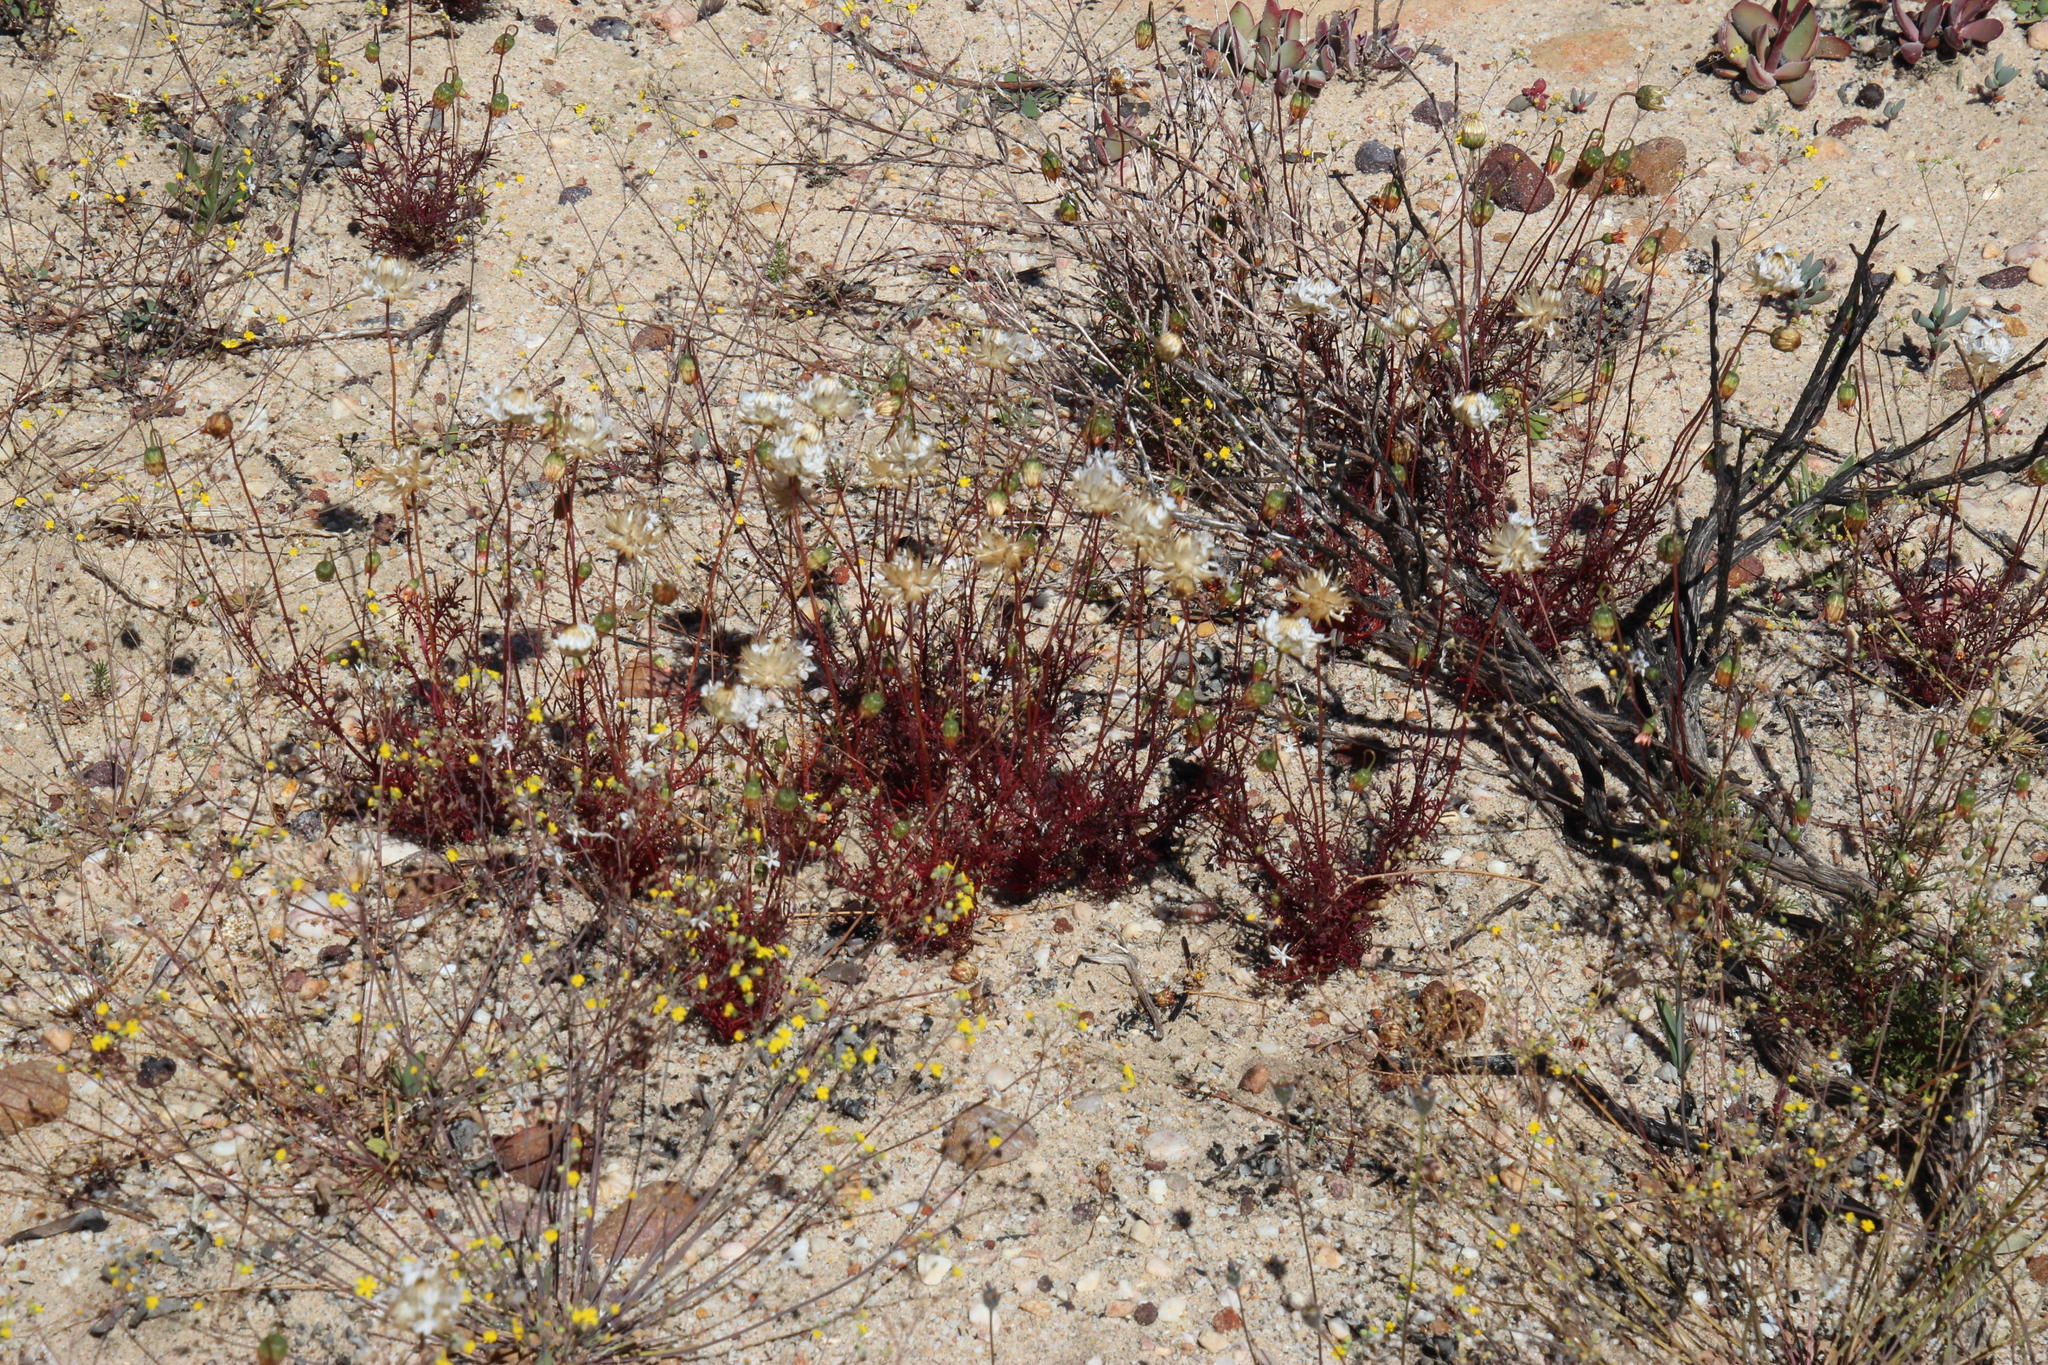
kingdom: Plantae
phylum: Tracheophyta
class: Magnoliopsida
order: Asterales
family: Asteraceae
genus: Ursinia
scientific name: Ursinia anthemoides
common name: Ursinia
